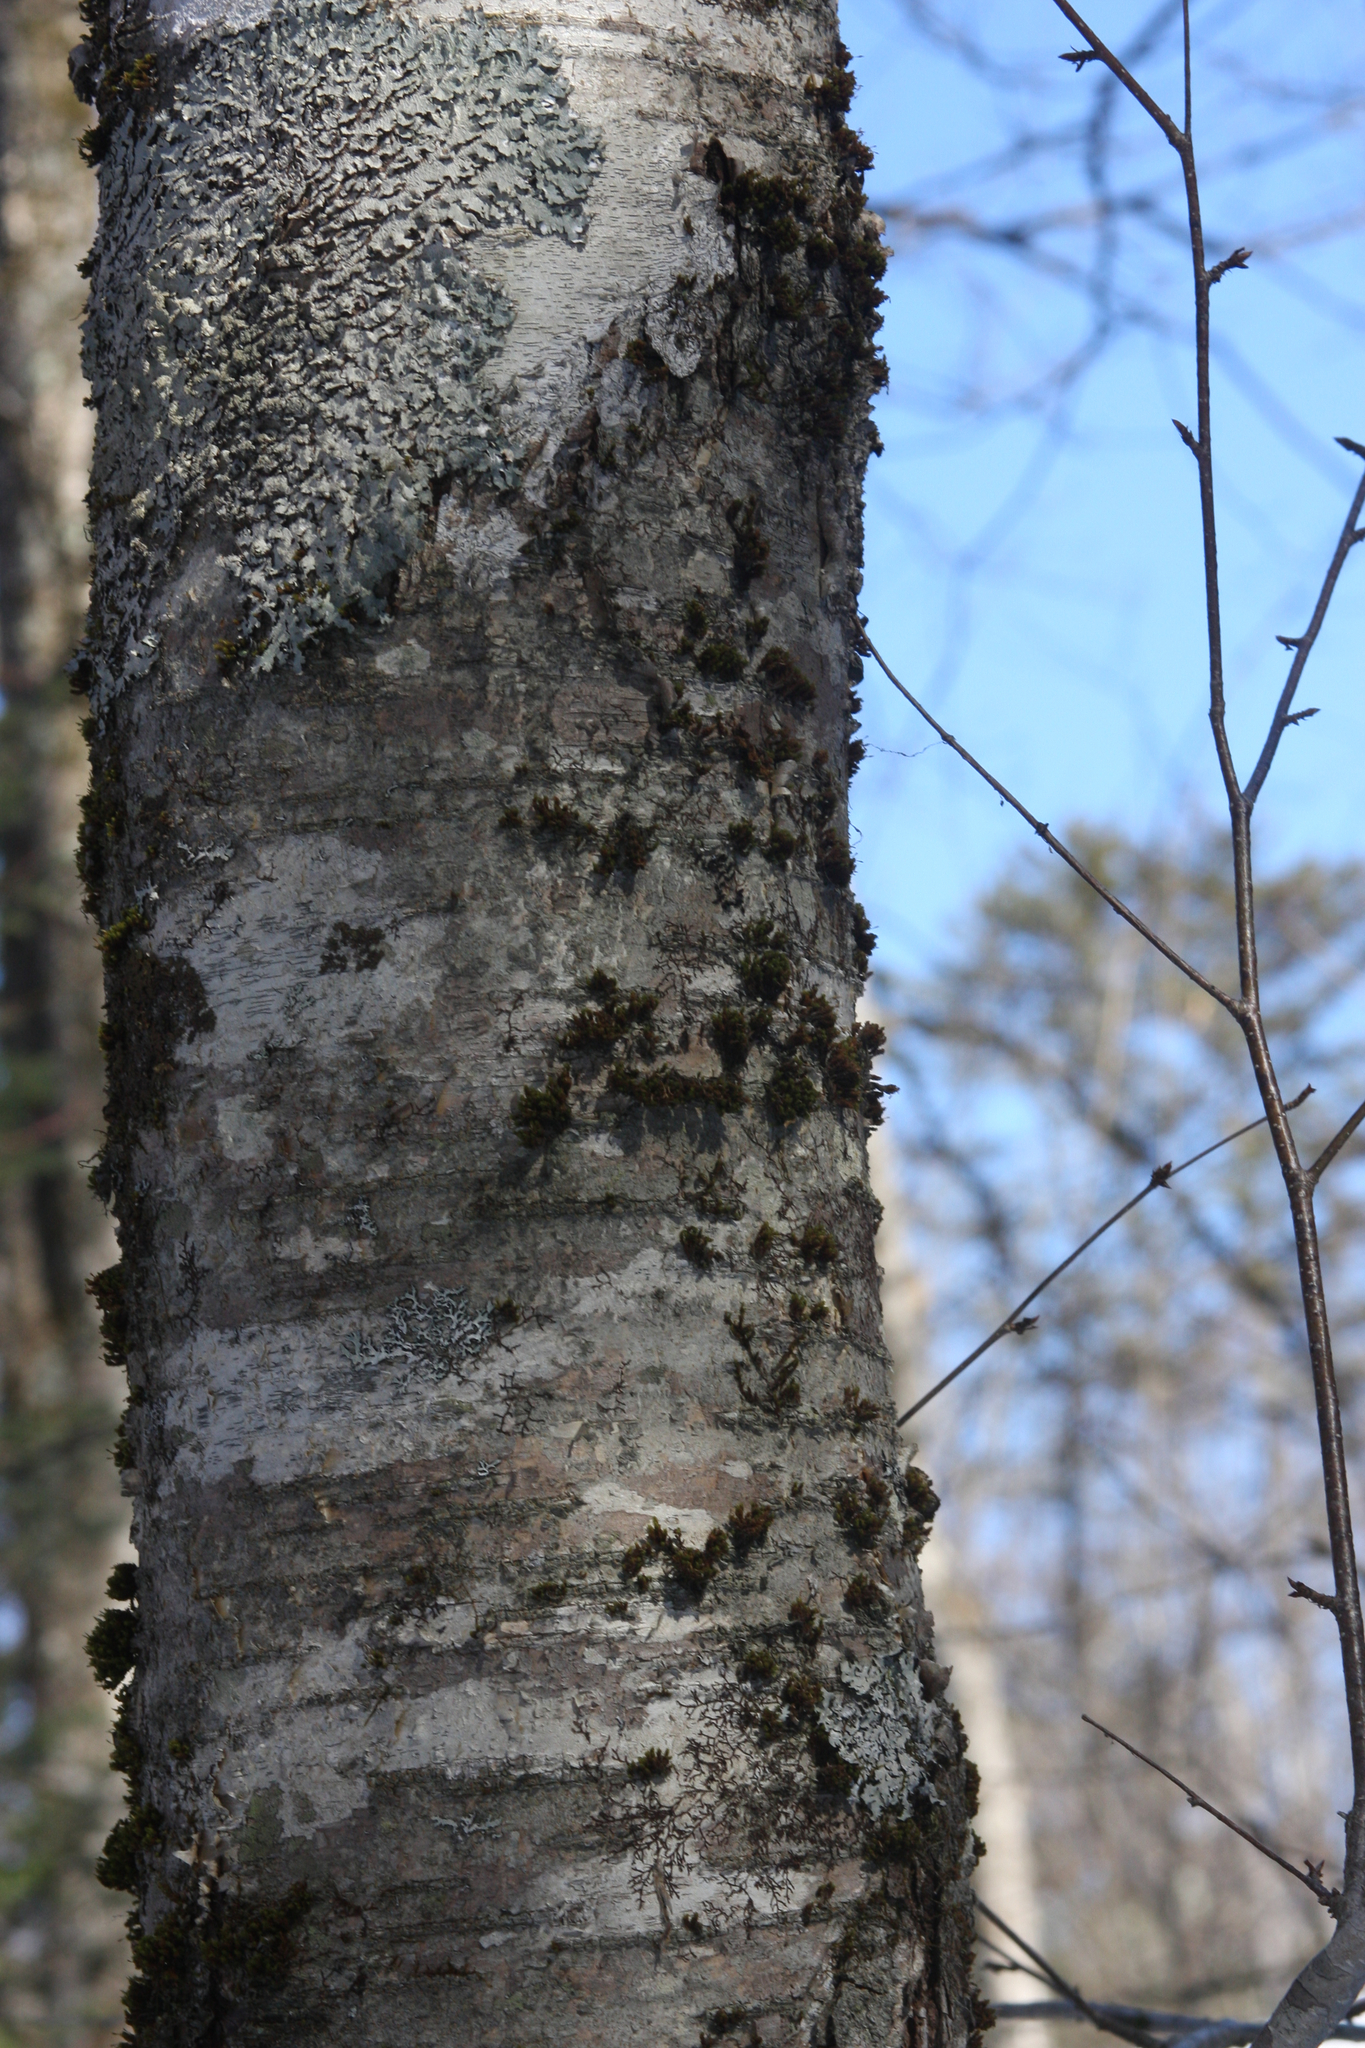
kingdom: Plantae
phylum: Bryophyta
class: Bryopsida
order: Orthotrichales
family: Orthotrichaceae
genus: Ulota
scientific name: Ulota crispa
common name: Crisped pincushion moss
